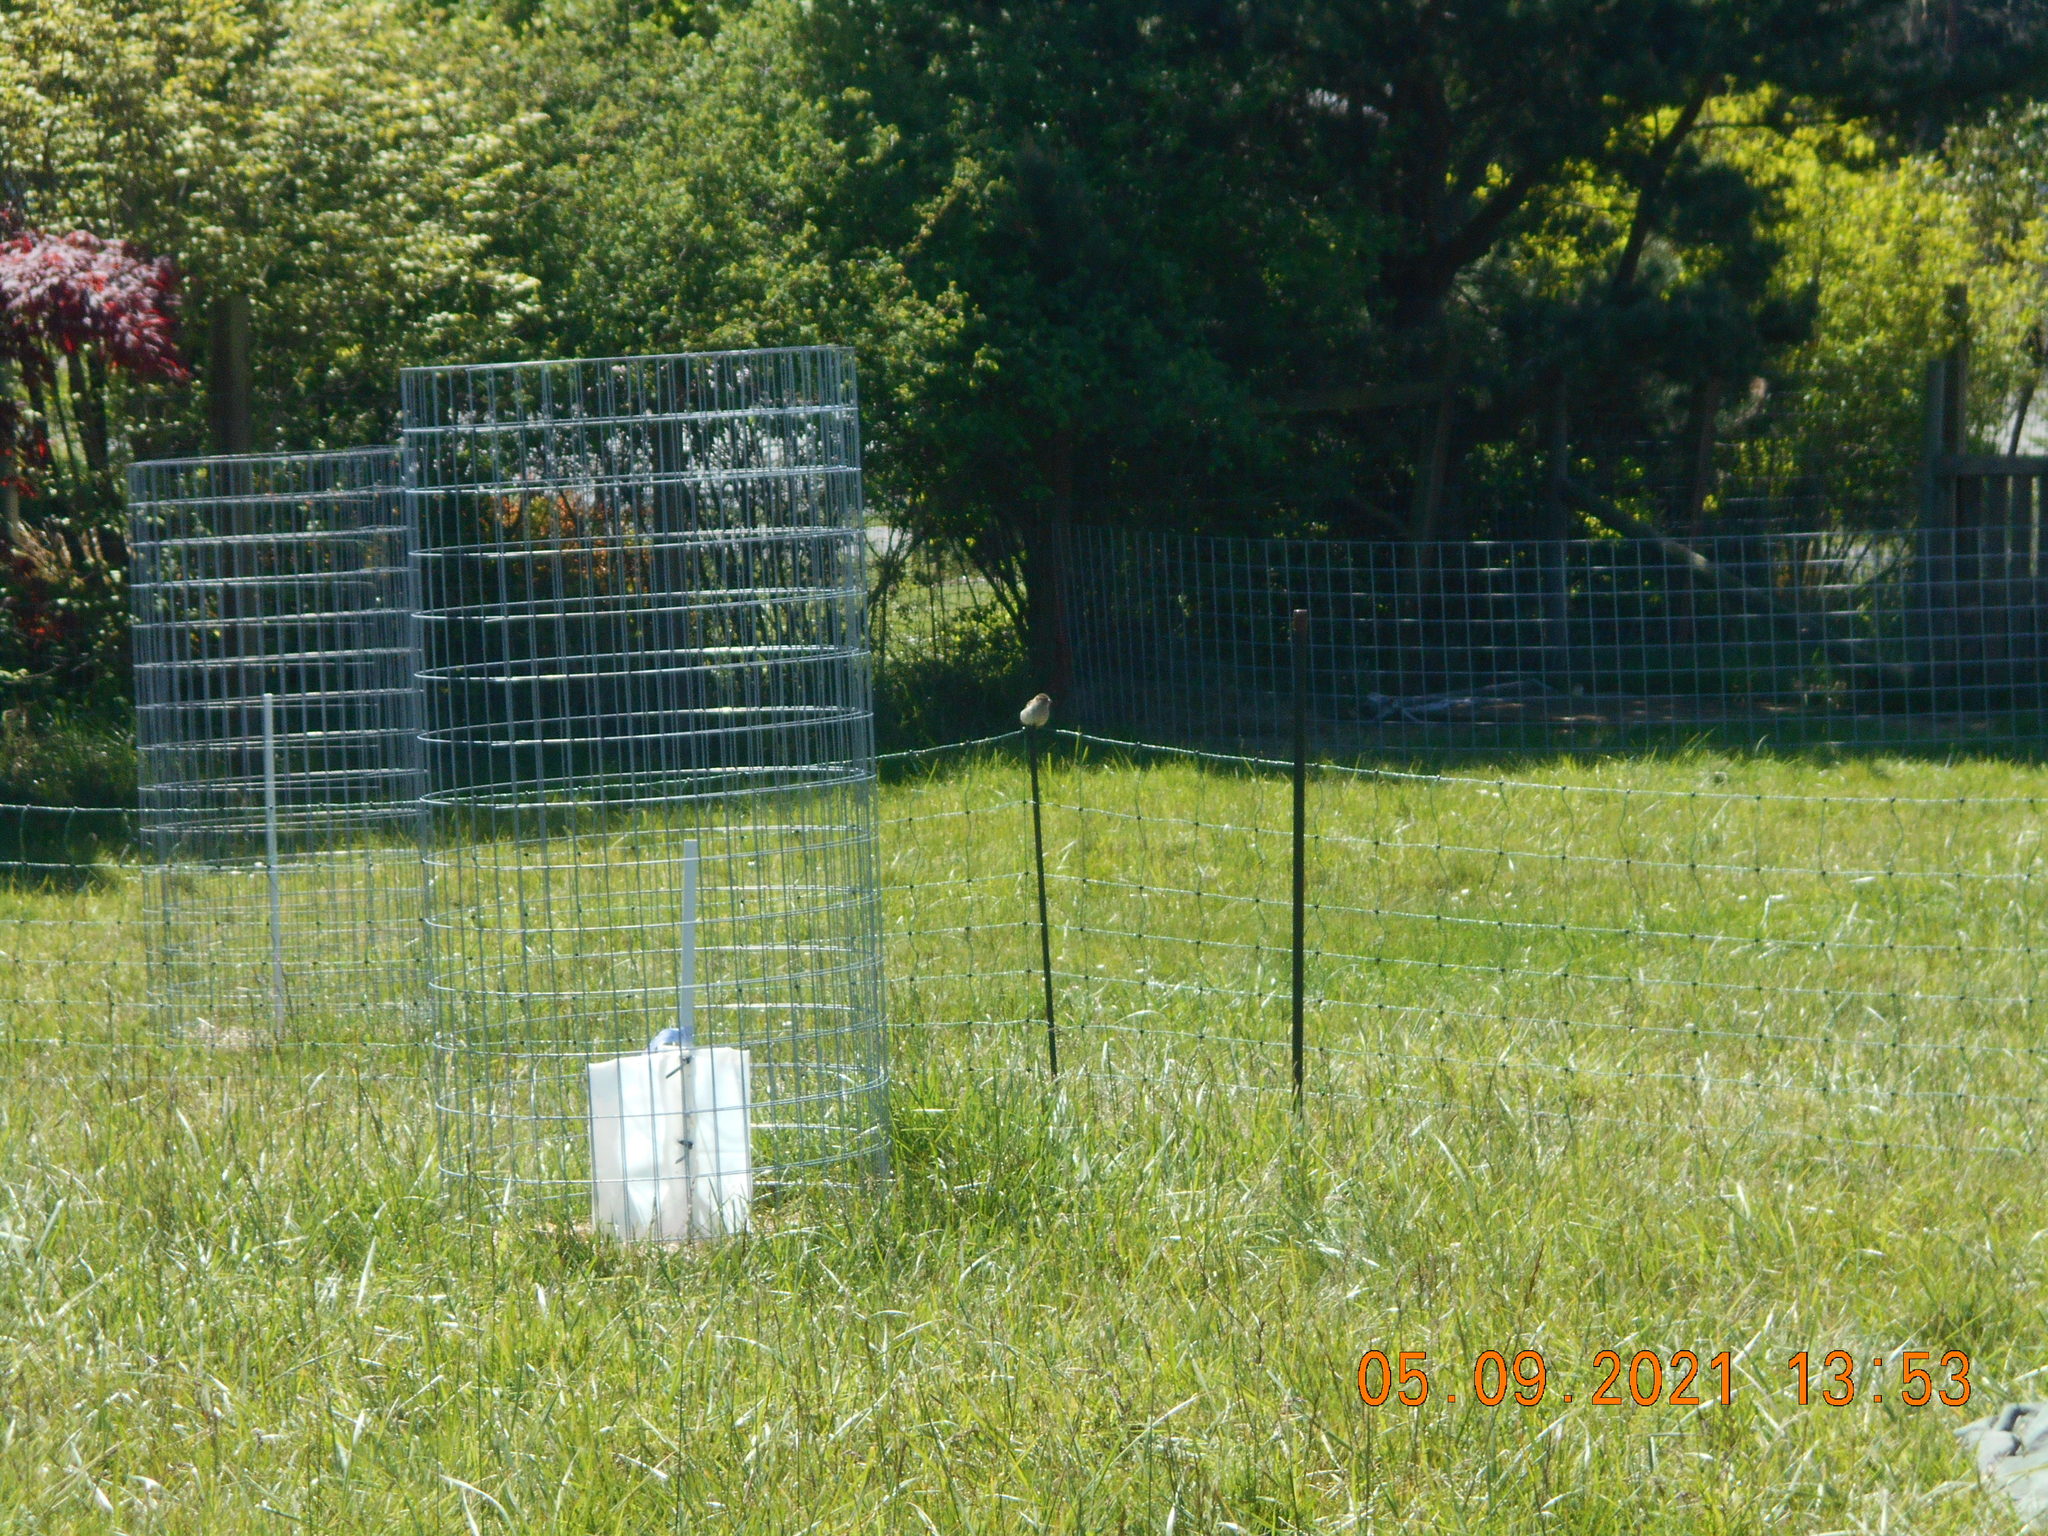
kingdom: Animalia
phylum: Chordata
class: Aves
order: Passeriformes
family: Passeridae
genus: Passer
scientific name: Passer domesticus
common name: House sparrow
